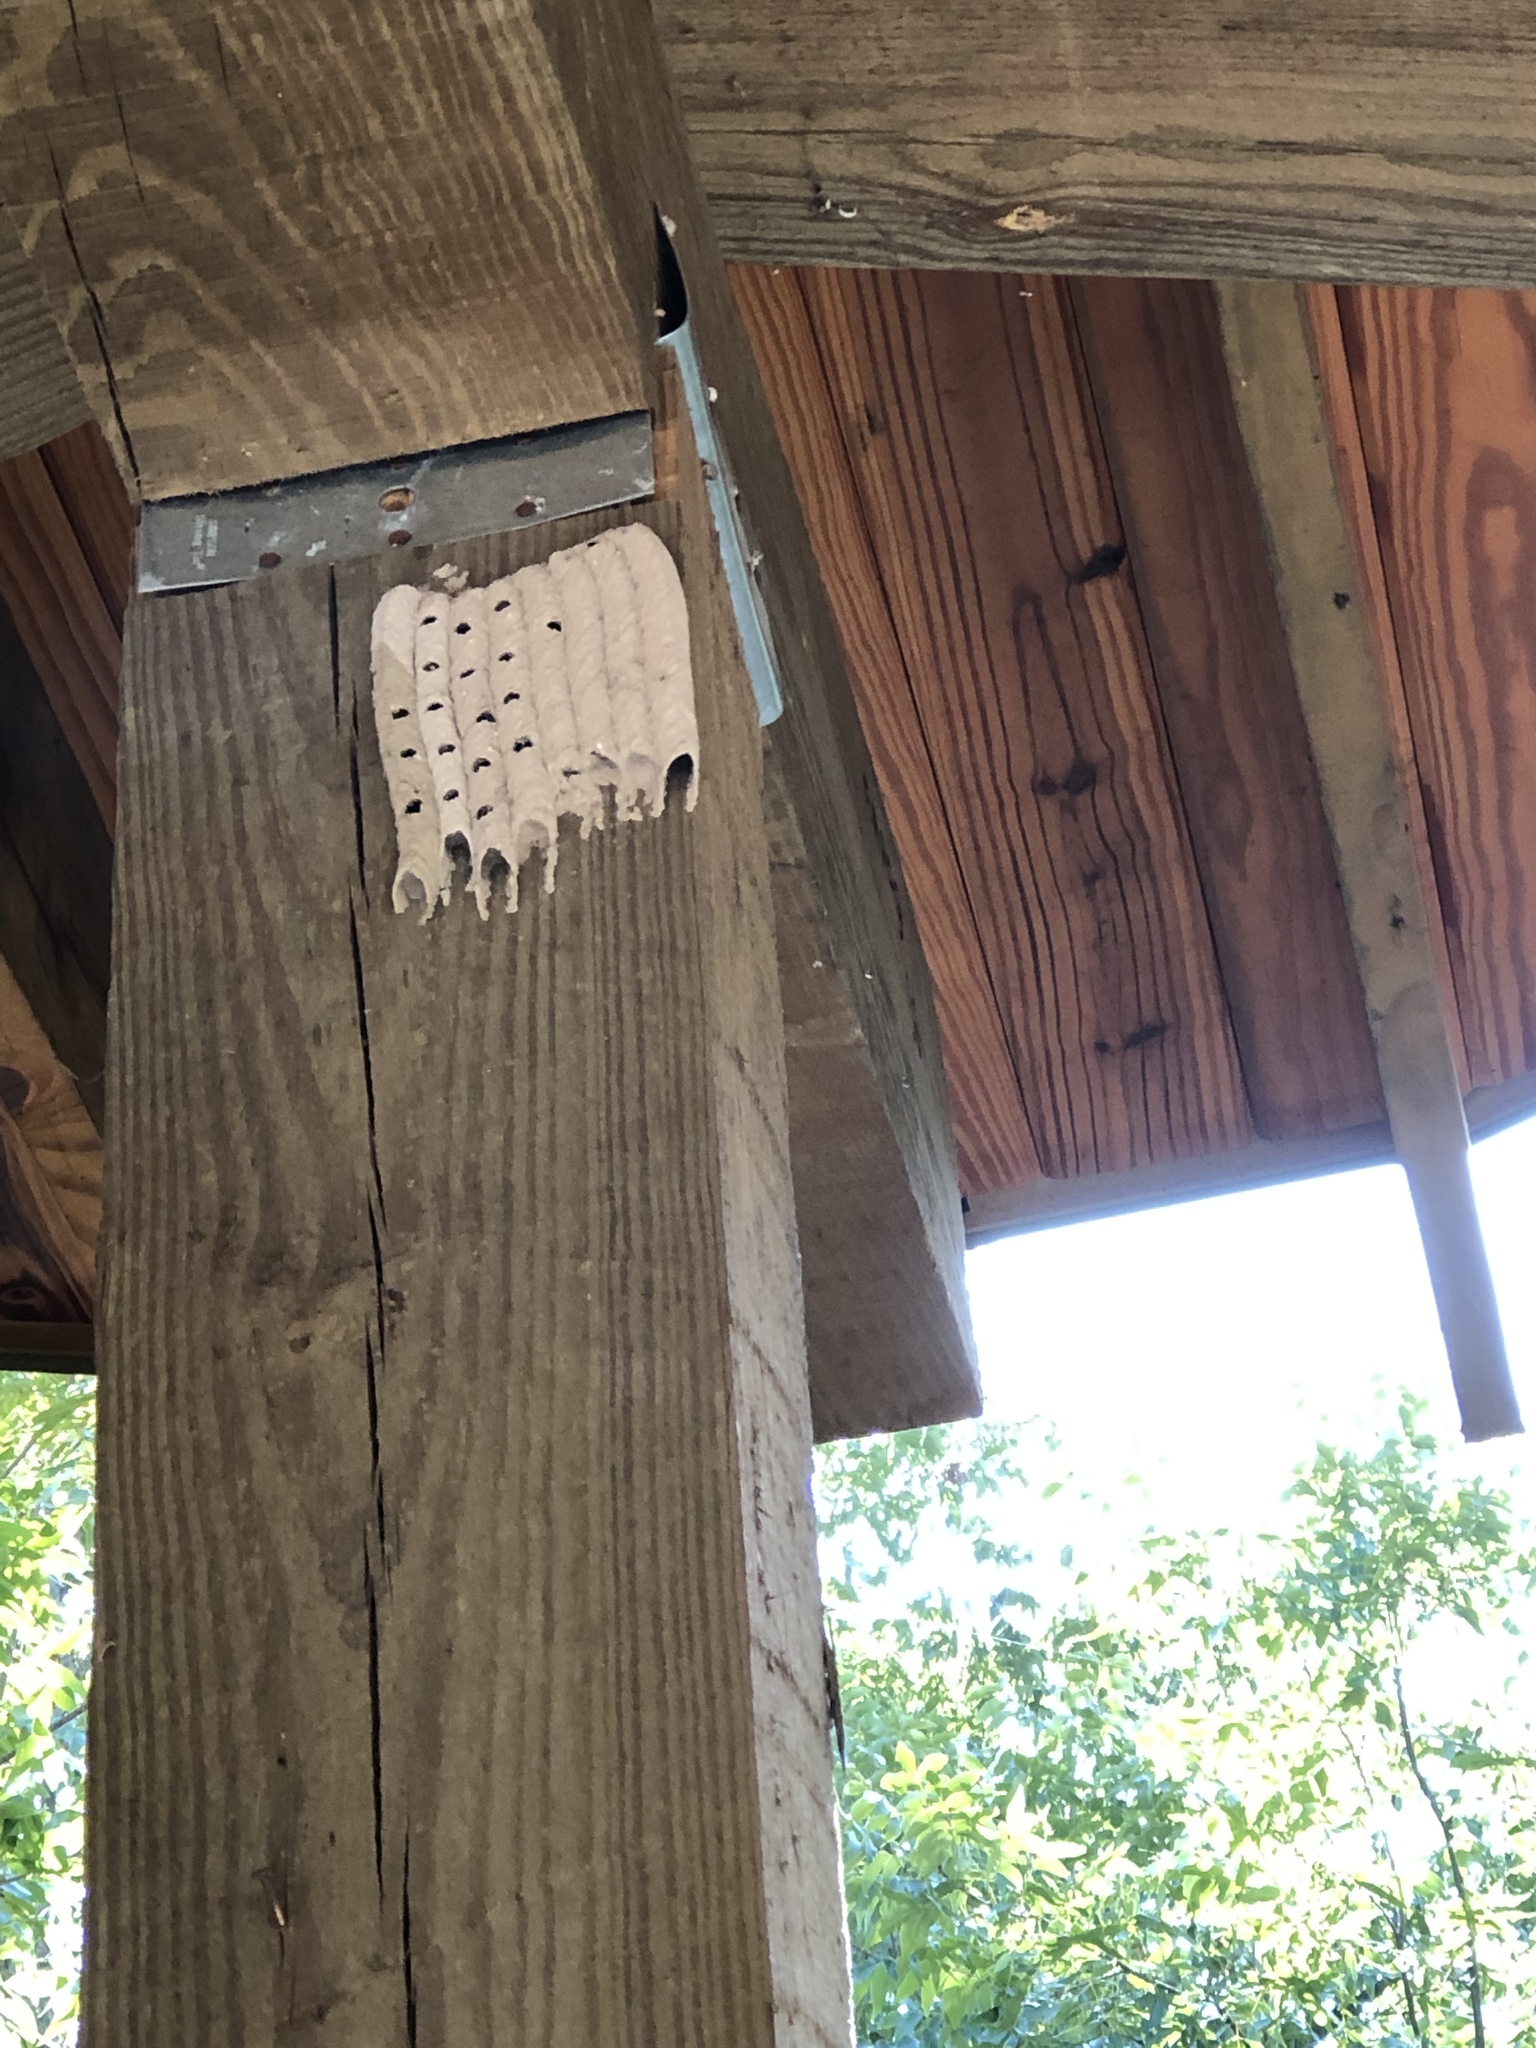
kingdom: Animalia
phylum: Arthropoda
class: Insecta
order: Hymenoptera
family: Crabronidae
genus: Trypoxylon
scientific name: Trypoxylon politum
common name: Organ-pipe mud-dauber wasp
